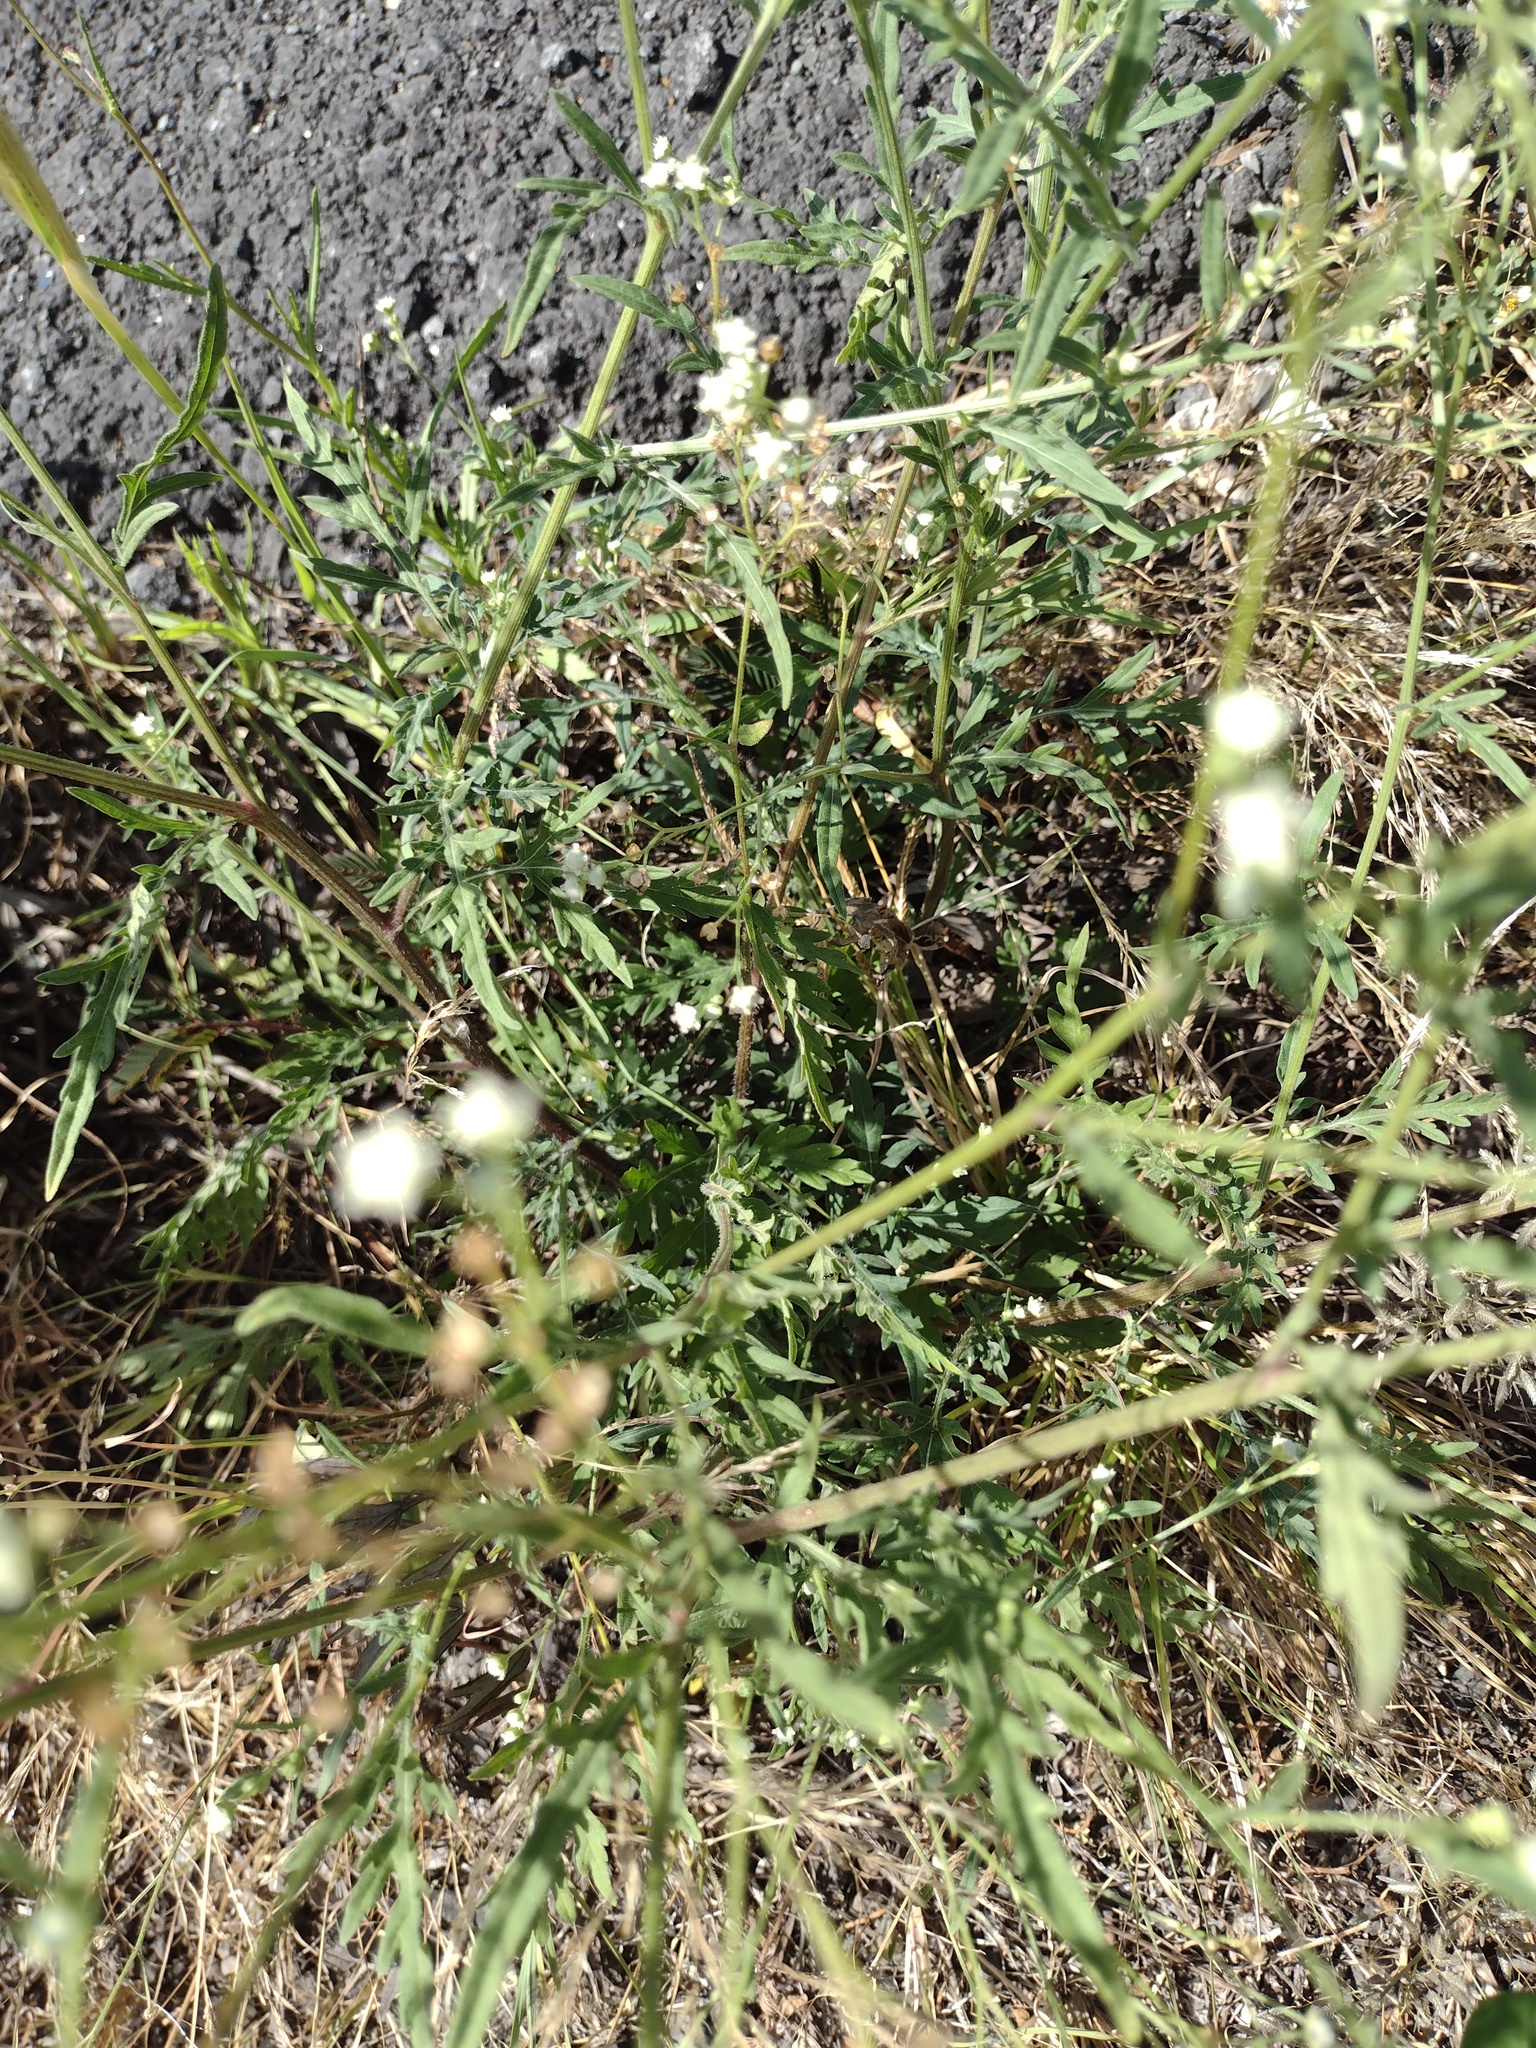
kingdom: Plantae
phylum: Tracheophyta
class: Magnoliopsida
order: Asterales
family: Asteraceae
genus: Parthenium
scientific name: Parthenium hysterophorus
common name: Santa maria feverfew
